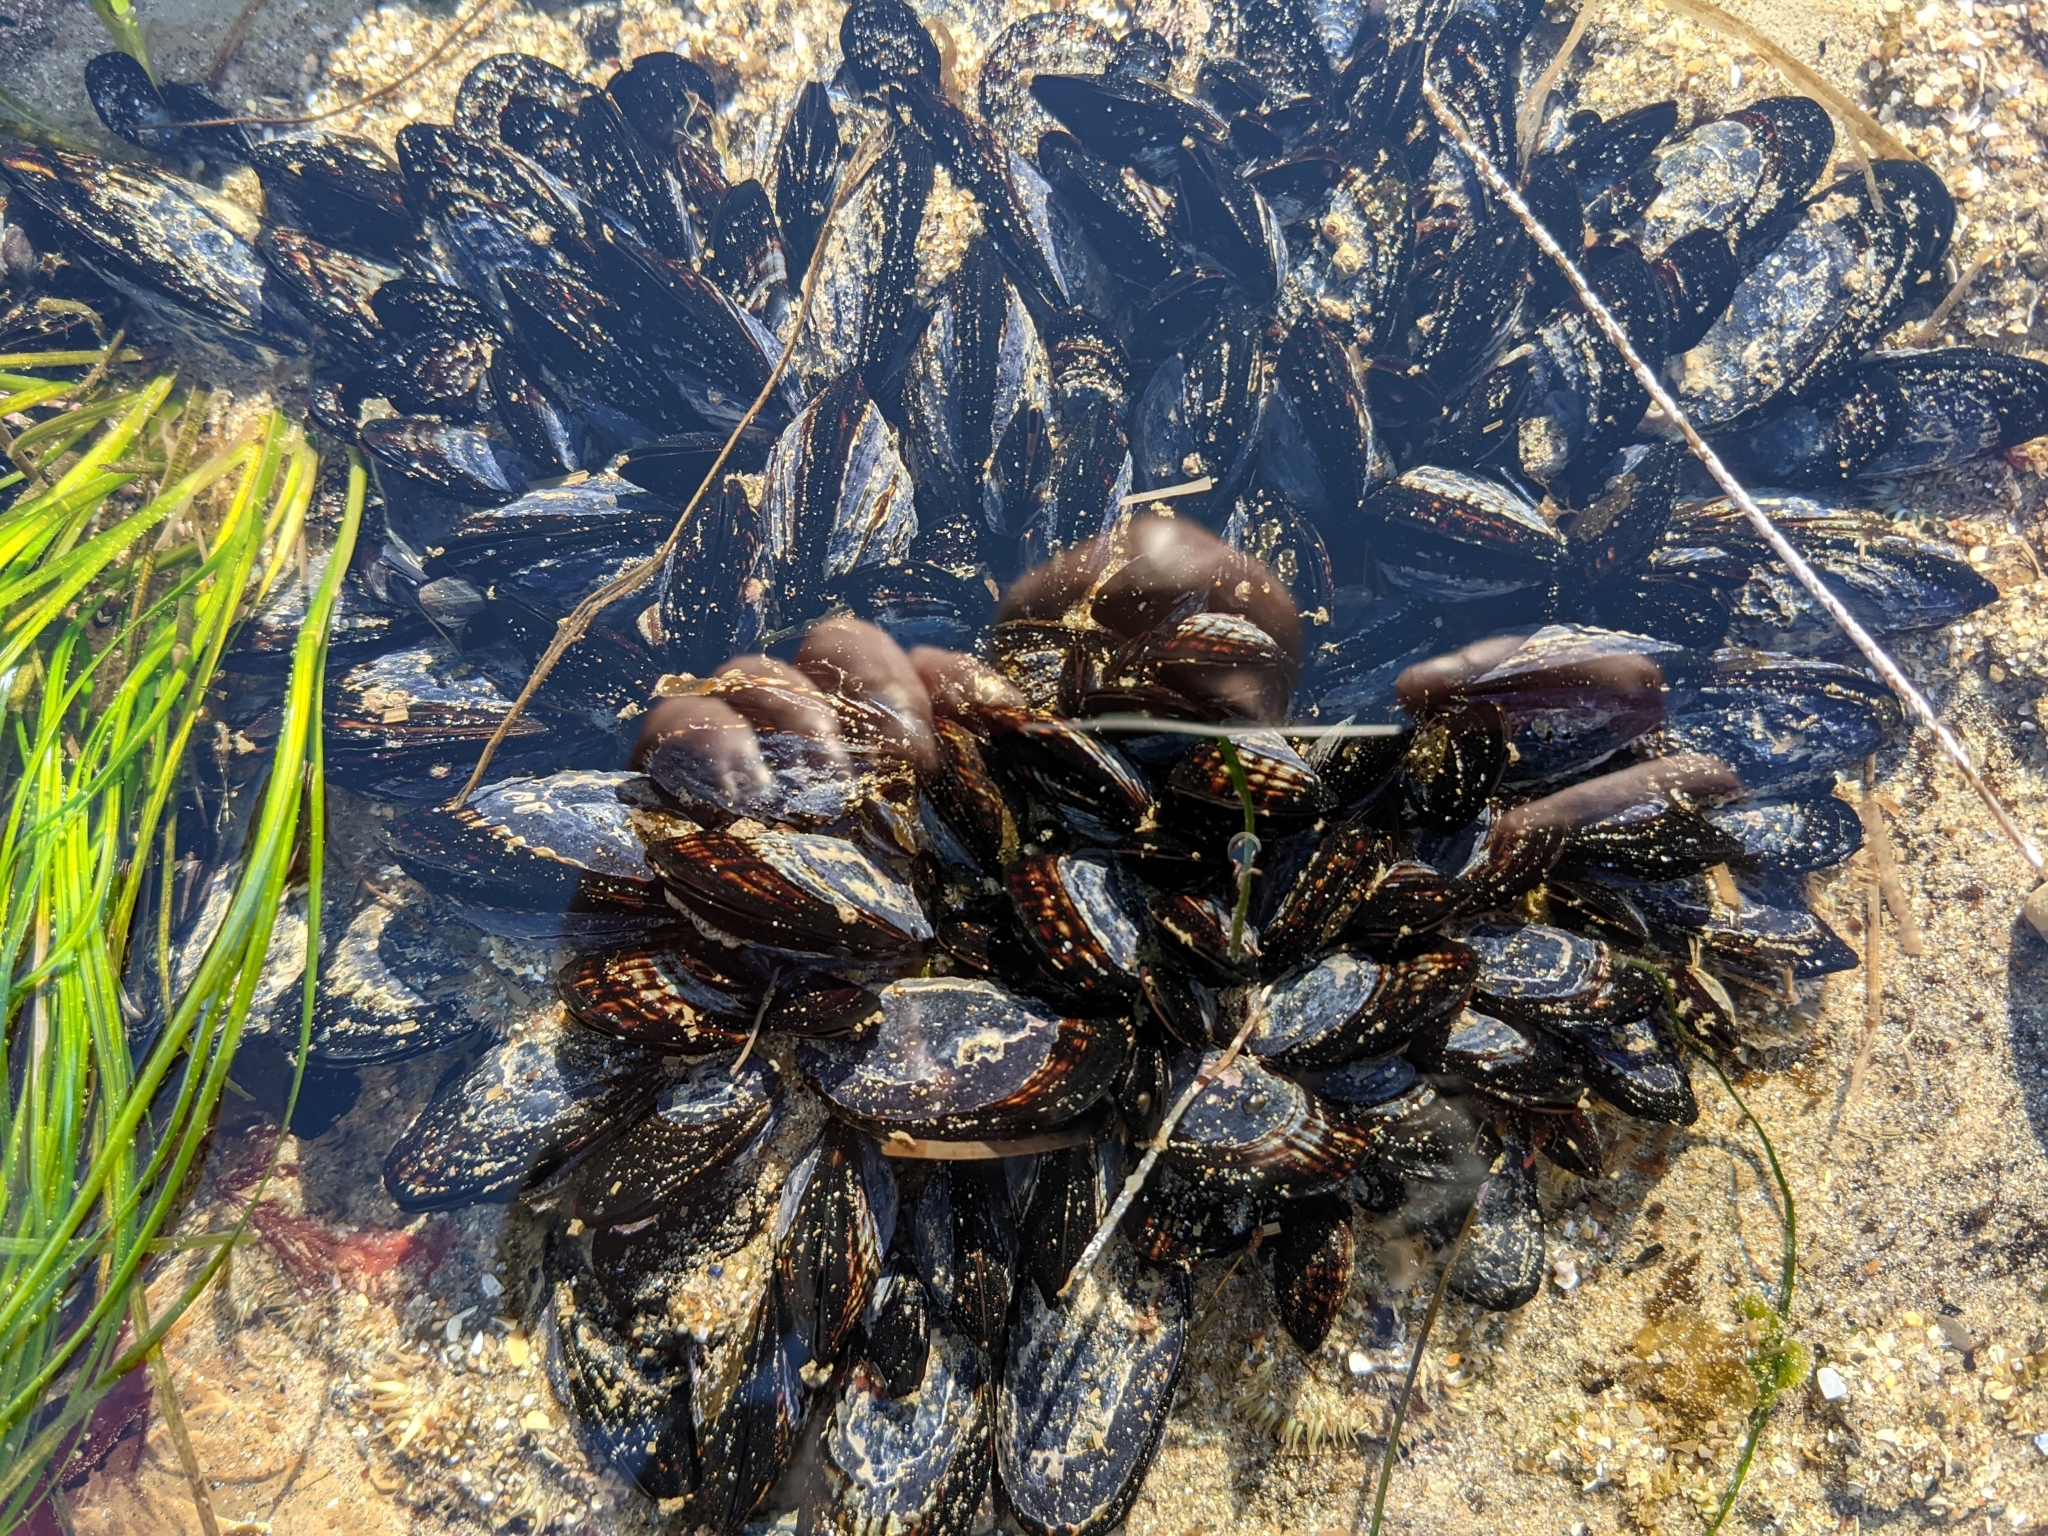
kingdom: Animalia
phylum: Mollusca
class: Bivalvia
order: Mytilida
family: Mytilidae
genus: Mytilus
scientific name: Mytilus californianus
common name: California mussel
